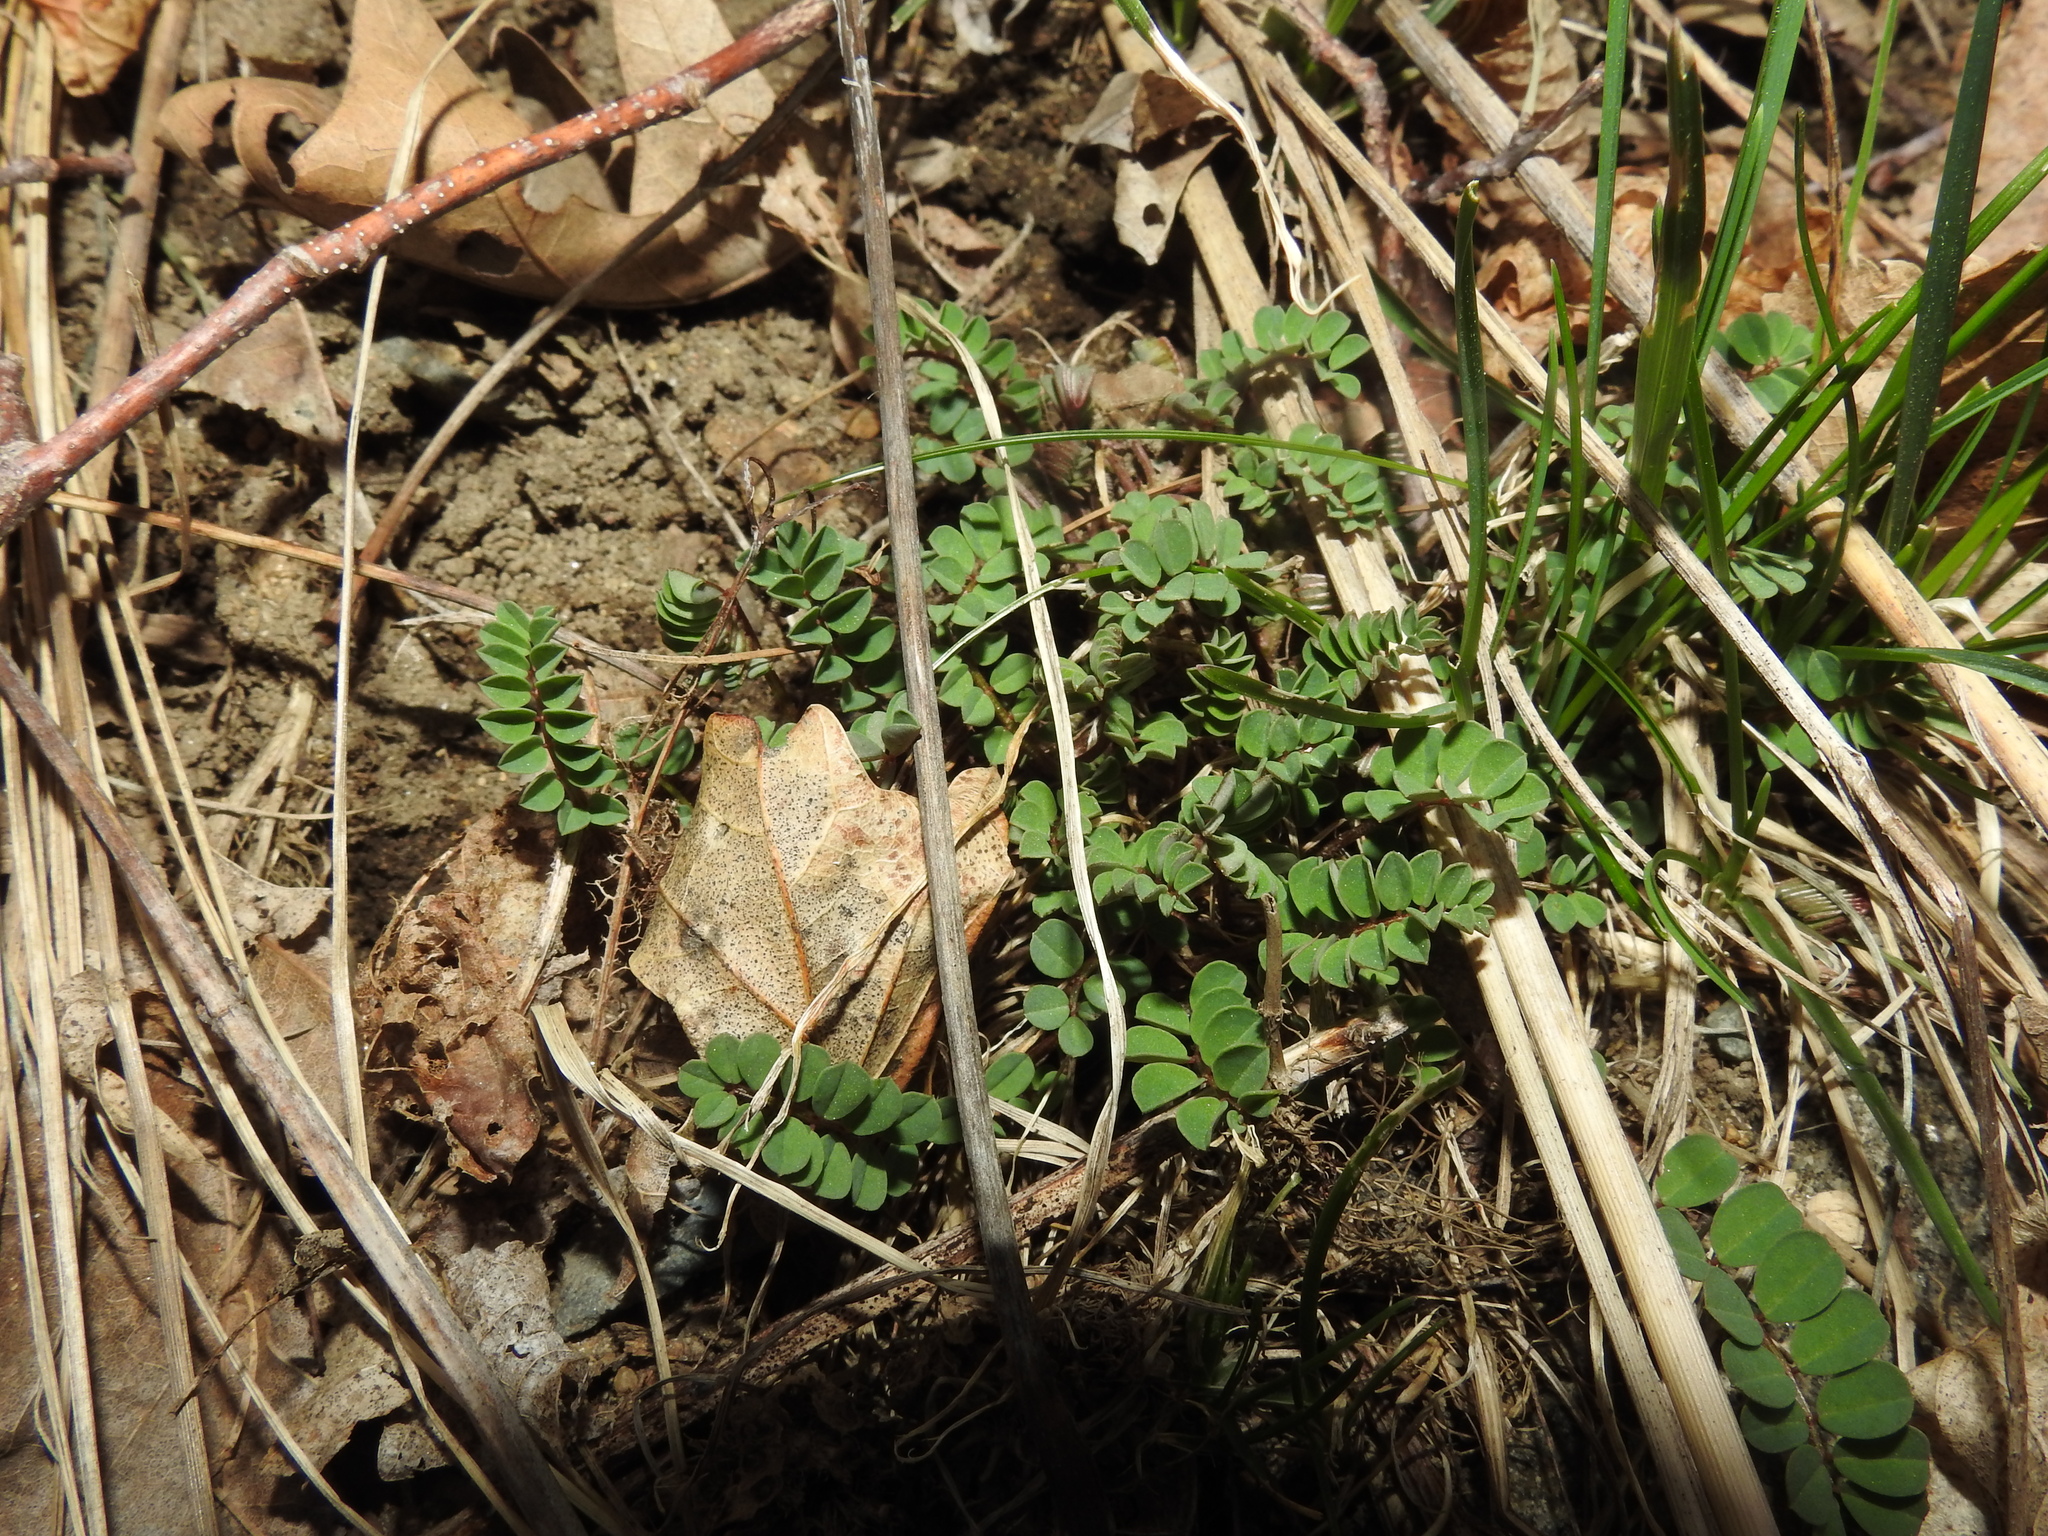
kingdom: Plantae
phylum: Tracheophyta
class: Magnoliopsida
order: Fabales
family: Fabaceae
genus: Coronilla
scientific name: Coronilla varia
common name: Crownvetch
